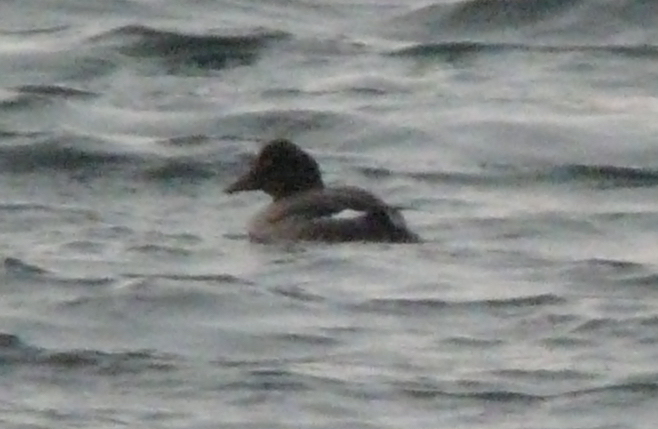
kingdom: Animalia
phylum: Chordata
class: Aves
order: Anseriformes
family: Anatidae
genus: Bucephala
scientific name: Bucephala clangula
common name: Common goldeneye
